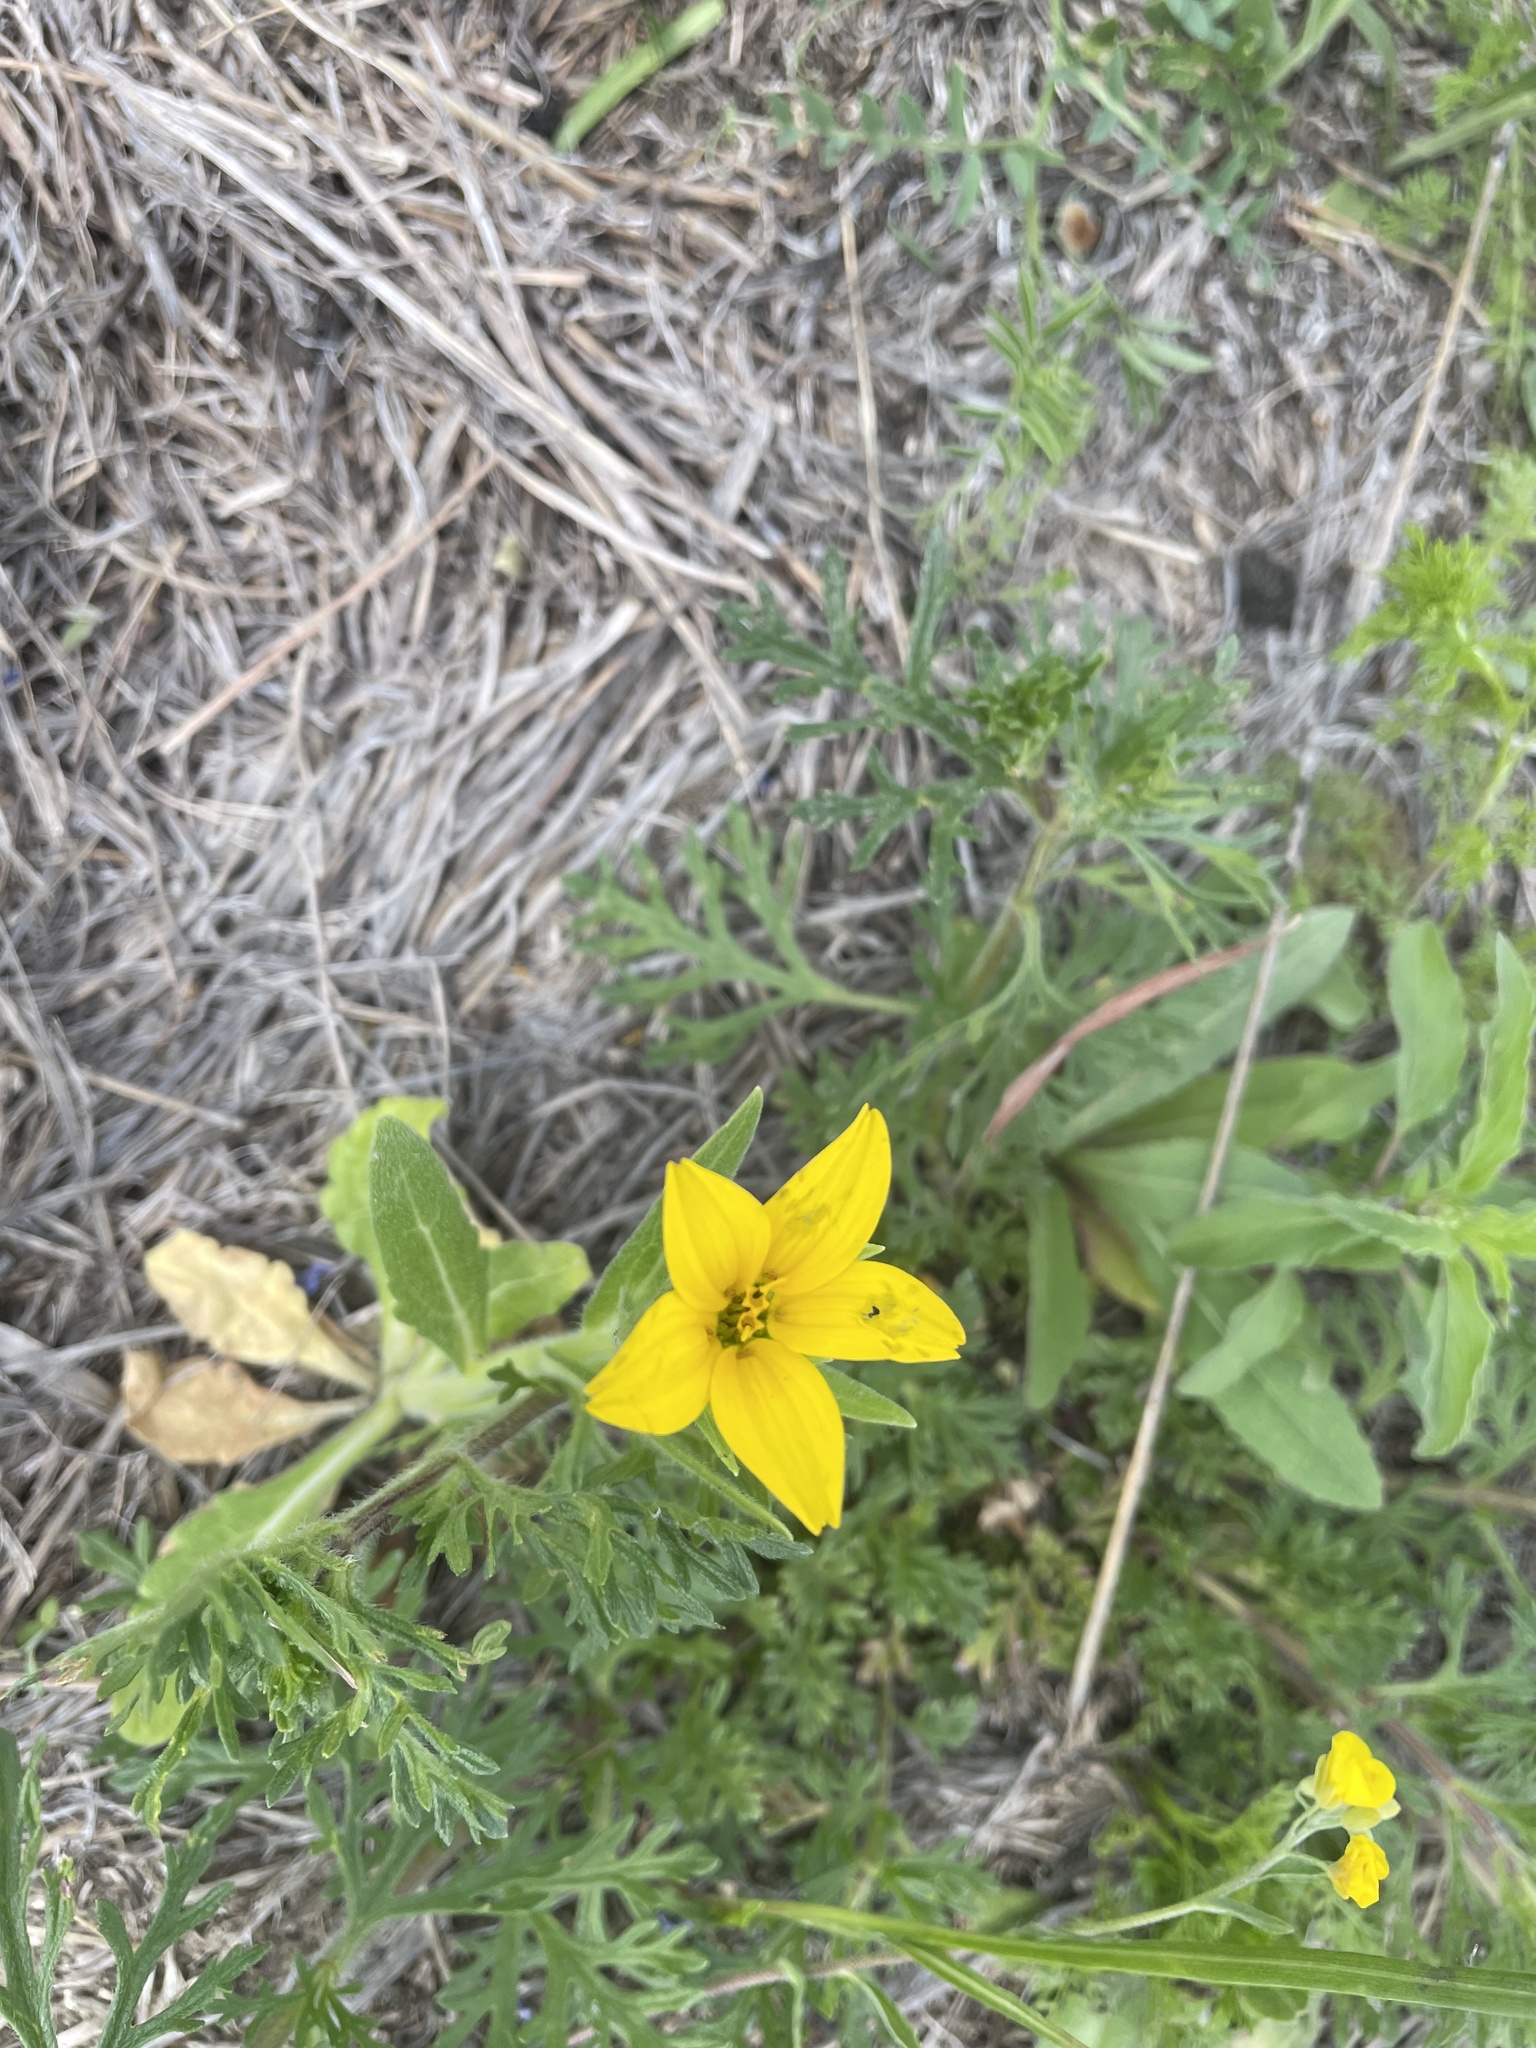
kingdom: Plantae
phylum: Tracheophyta
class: Magnoliopsida
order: Asterales
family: Asteraceae
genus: Lindheimera
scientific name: Lindheimera texana
